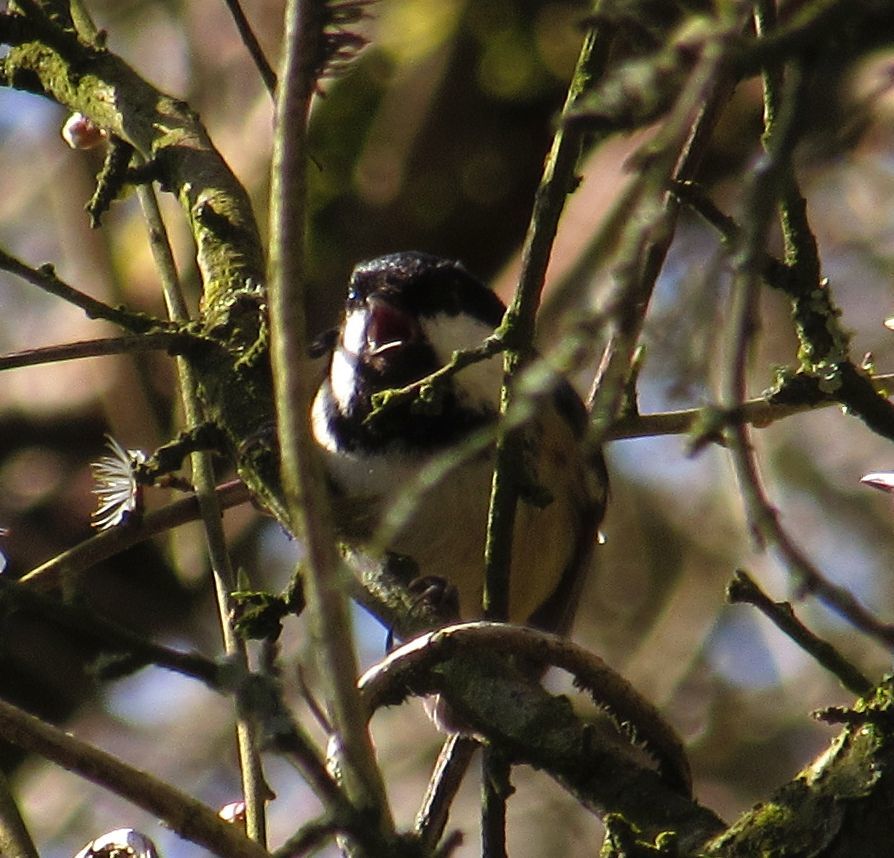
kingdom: Animalia
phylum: Chordata
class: Aves
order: Passeriformes
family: Paridae
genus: Periparus
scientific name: Periparus ater
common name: Coal tit
